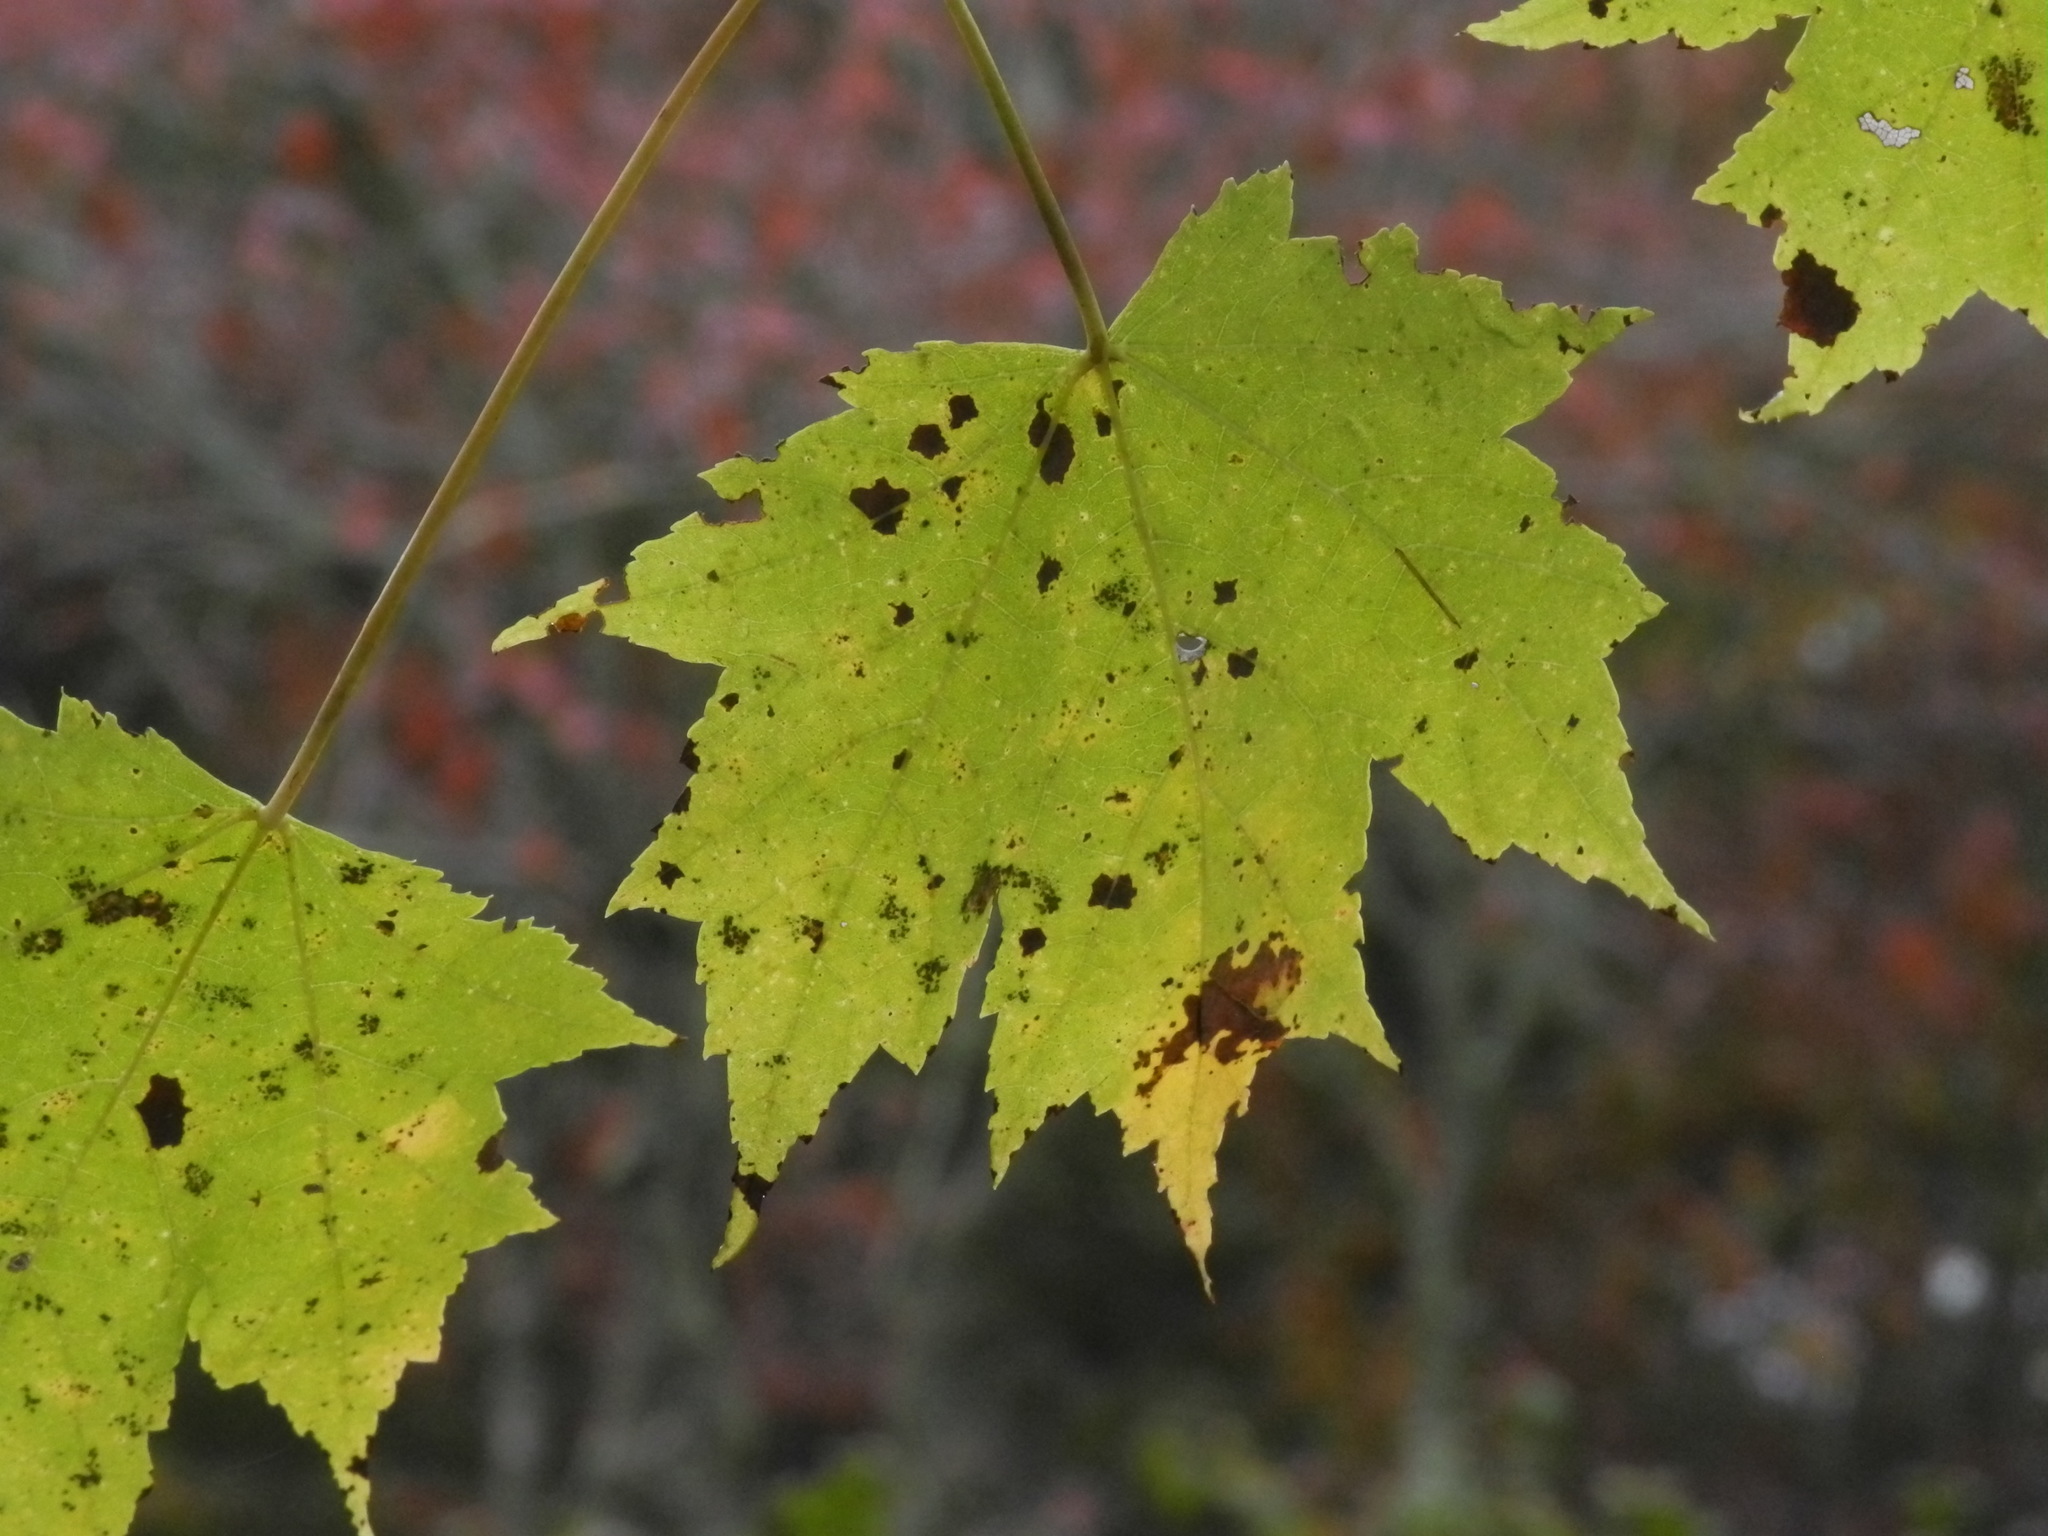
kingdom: Plantae
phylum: Tracheophyta
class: Magnoliopsida
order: Sapindales
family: Sapindaceae
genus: Acer
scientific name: Acer freemanii
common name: Freeman maple
